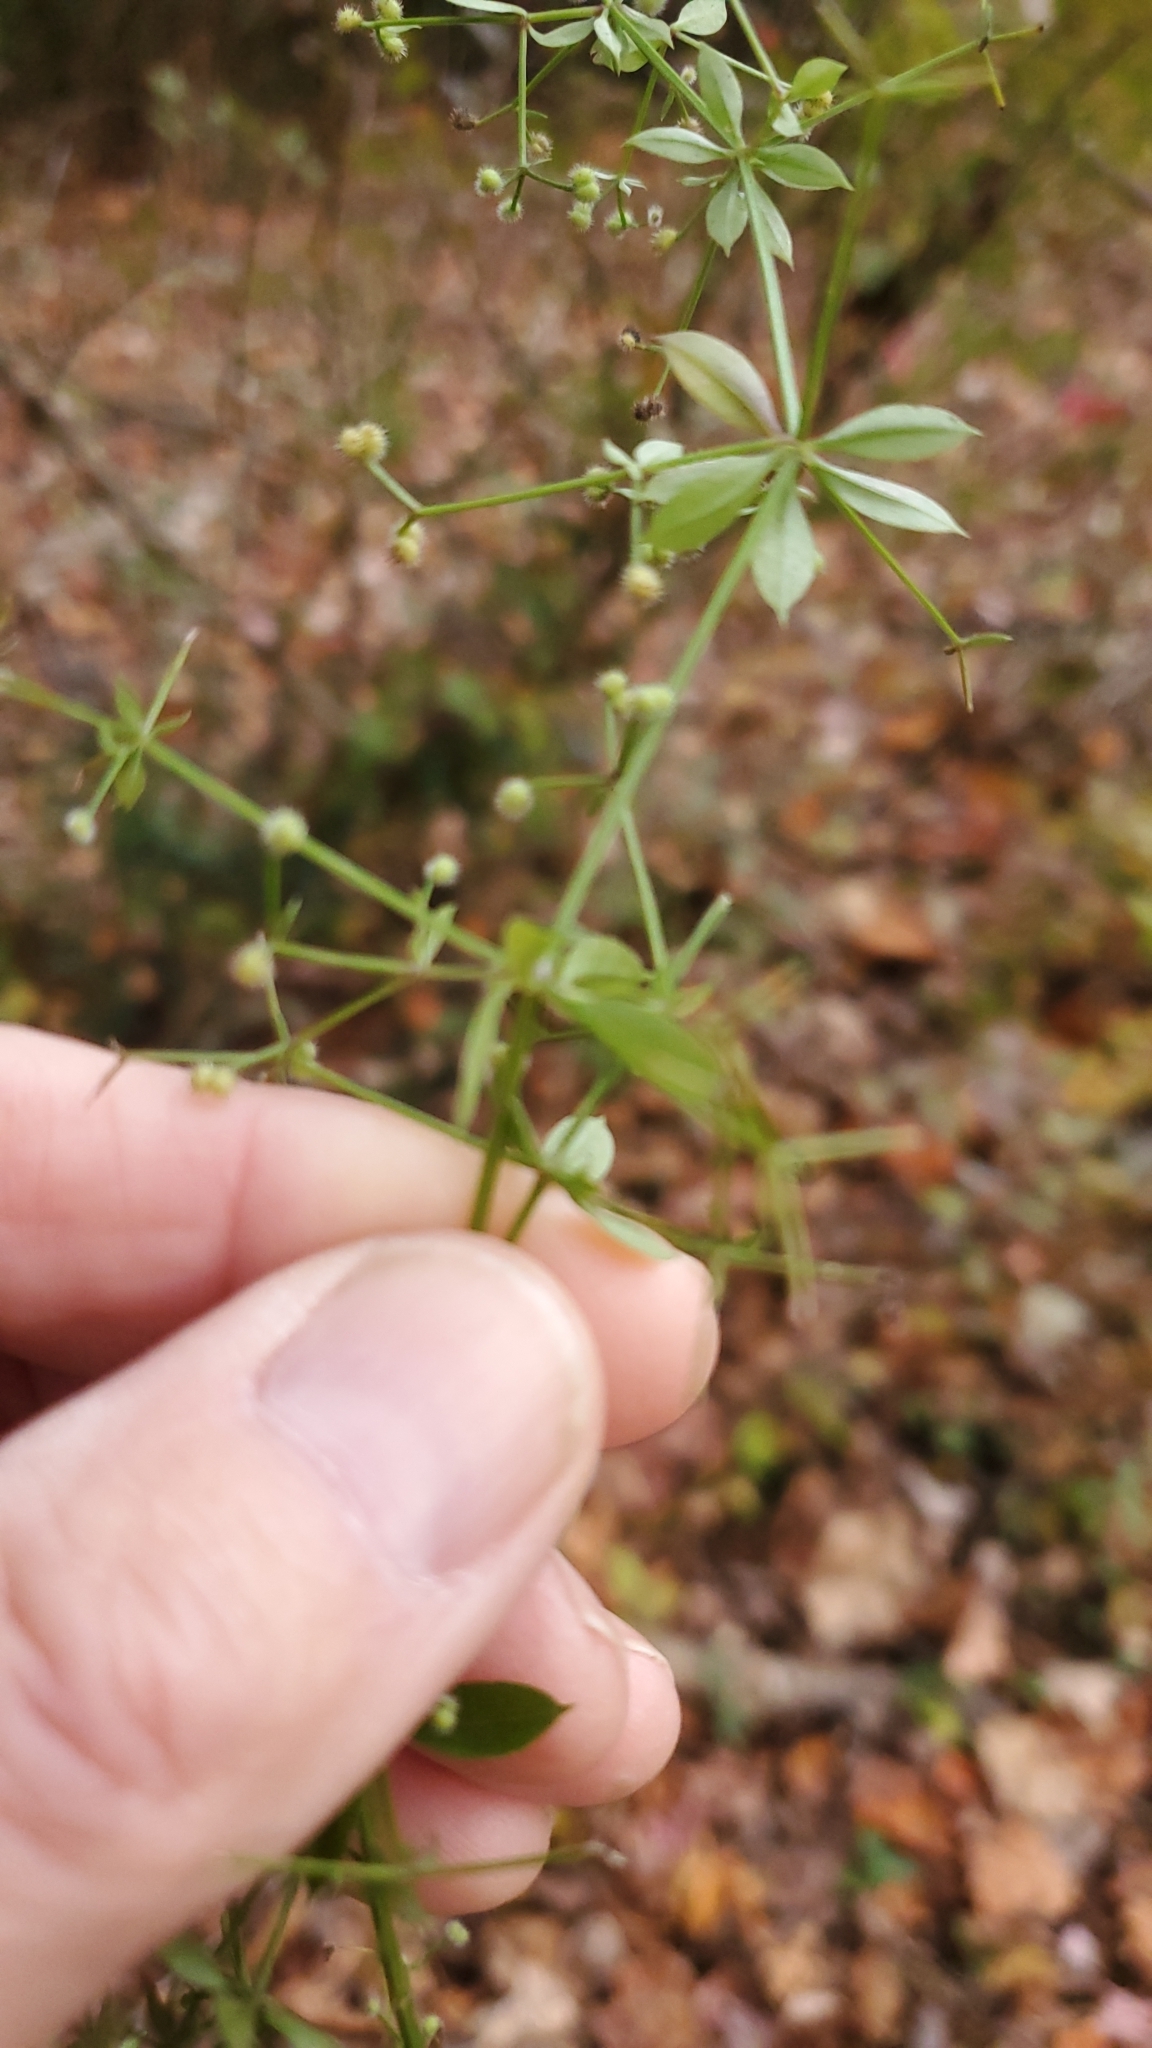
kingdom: Plantae
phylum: Tracheophyta
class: Magnoliopsida
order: Gentianales
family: Rubiaceae
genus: Galium
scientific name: Galium triflorum
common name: Fragrant bedstraw
